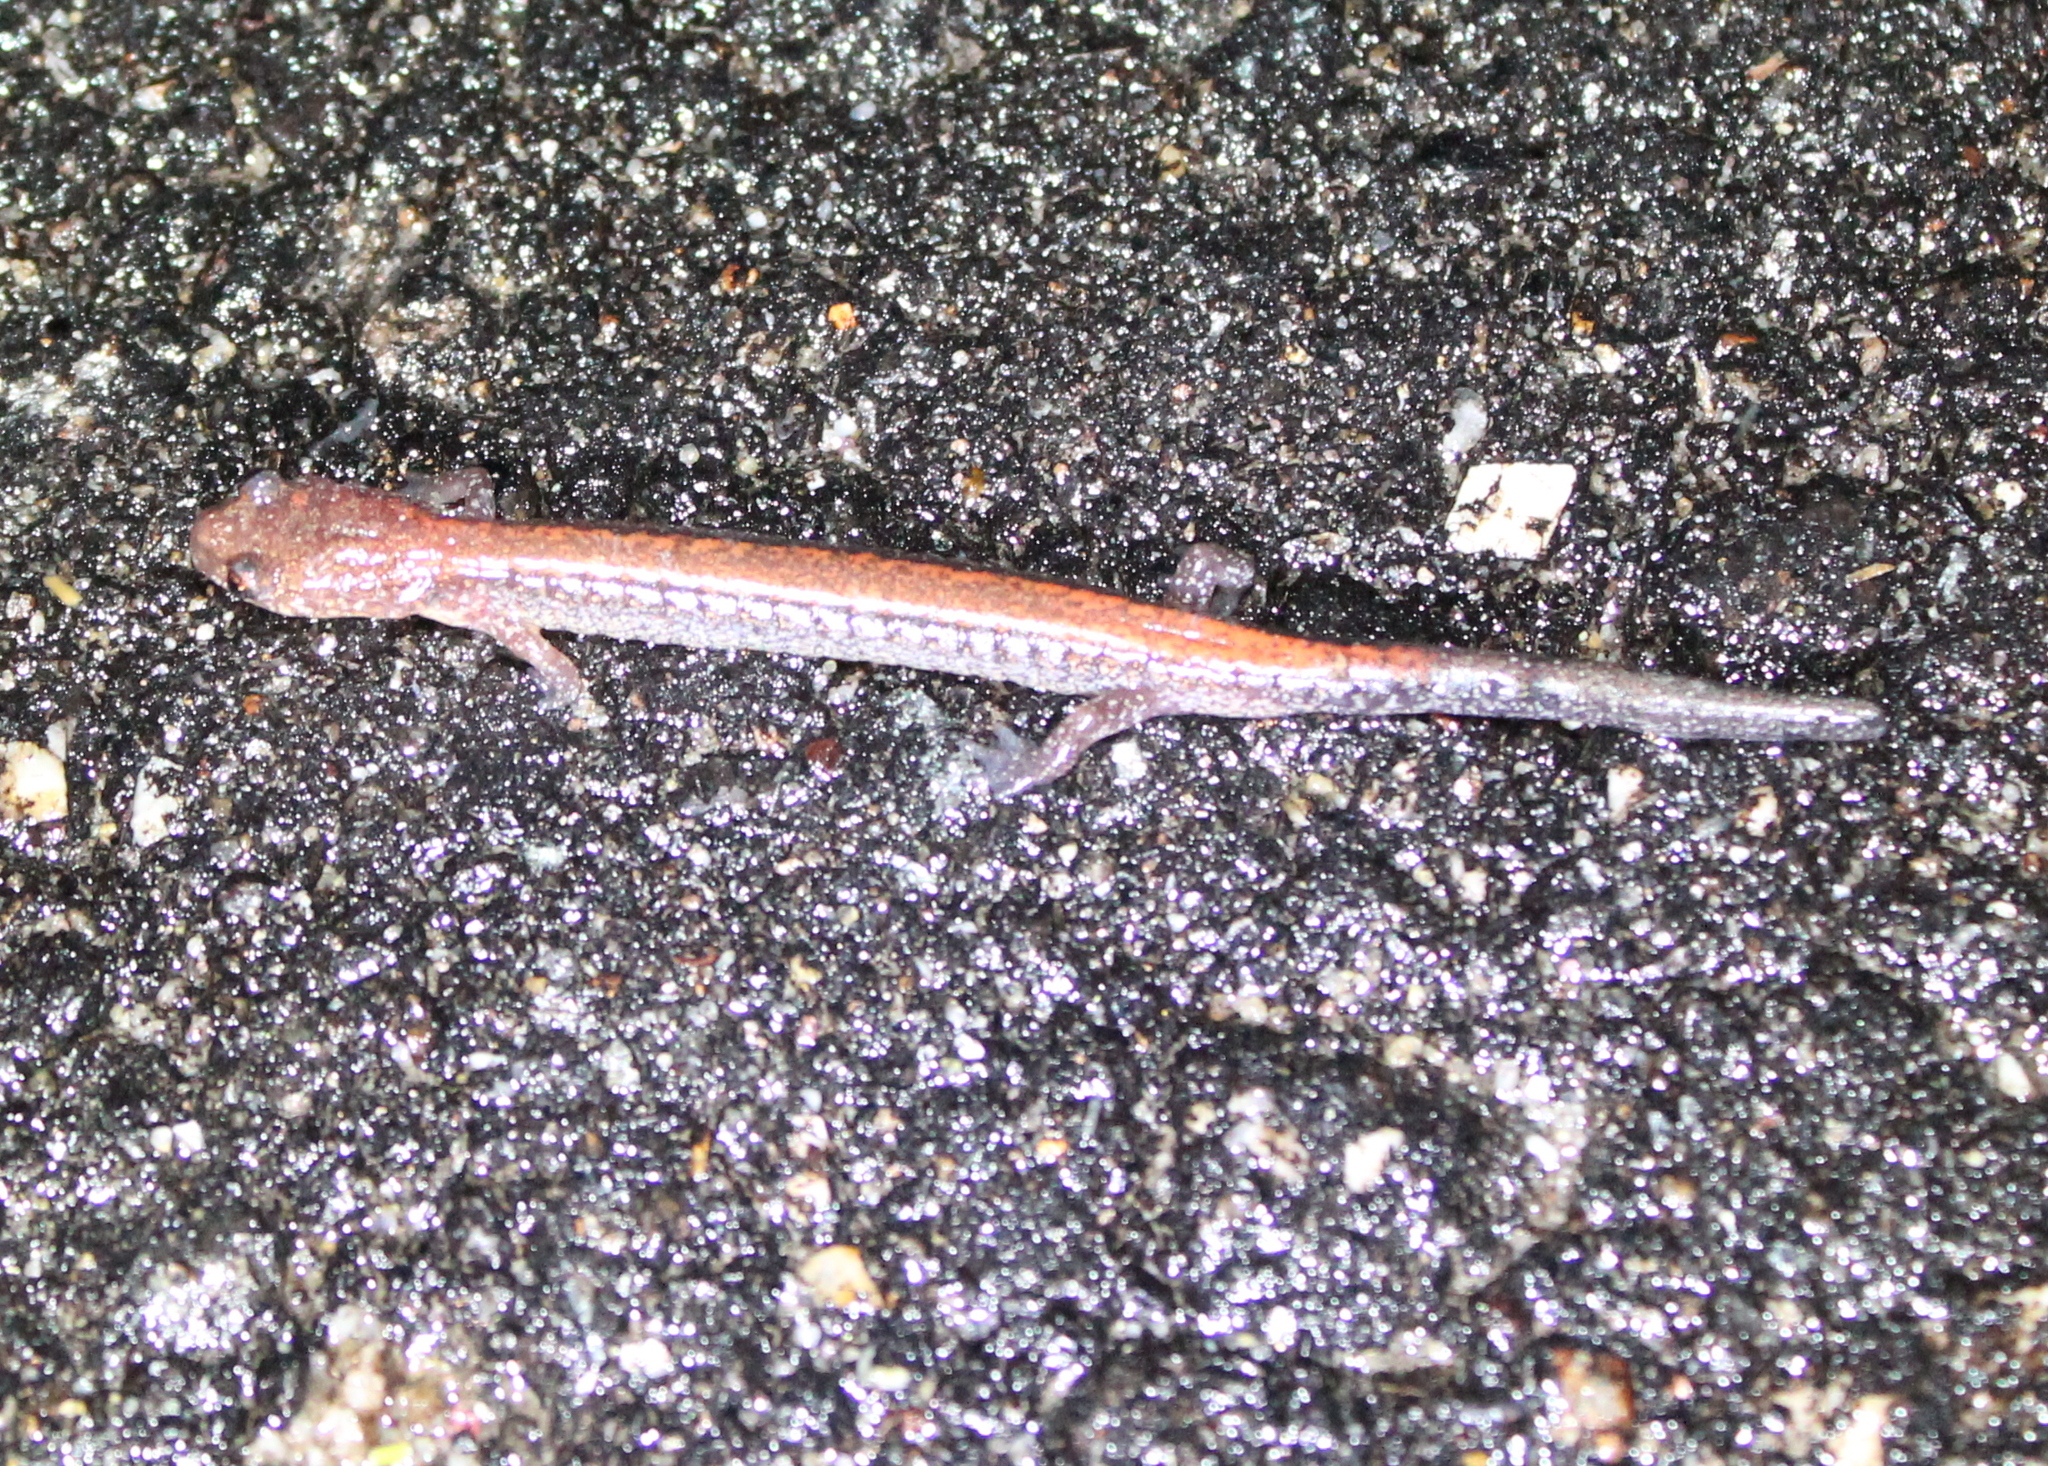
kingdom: Animalia
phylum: Chordata
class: Amphibia
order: Caudata
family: Plethodontidae
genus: Plethodon
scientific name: Plethodon cinereus
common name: Redback salamander
